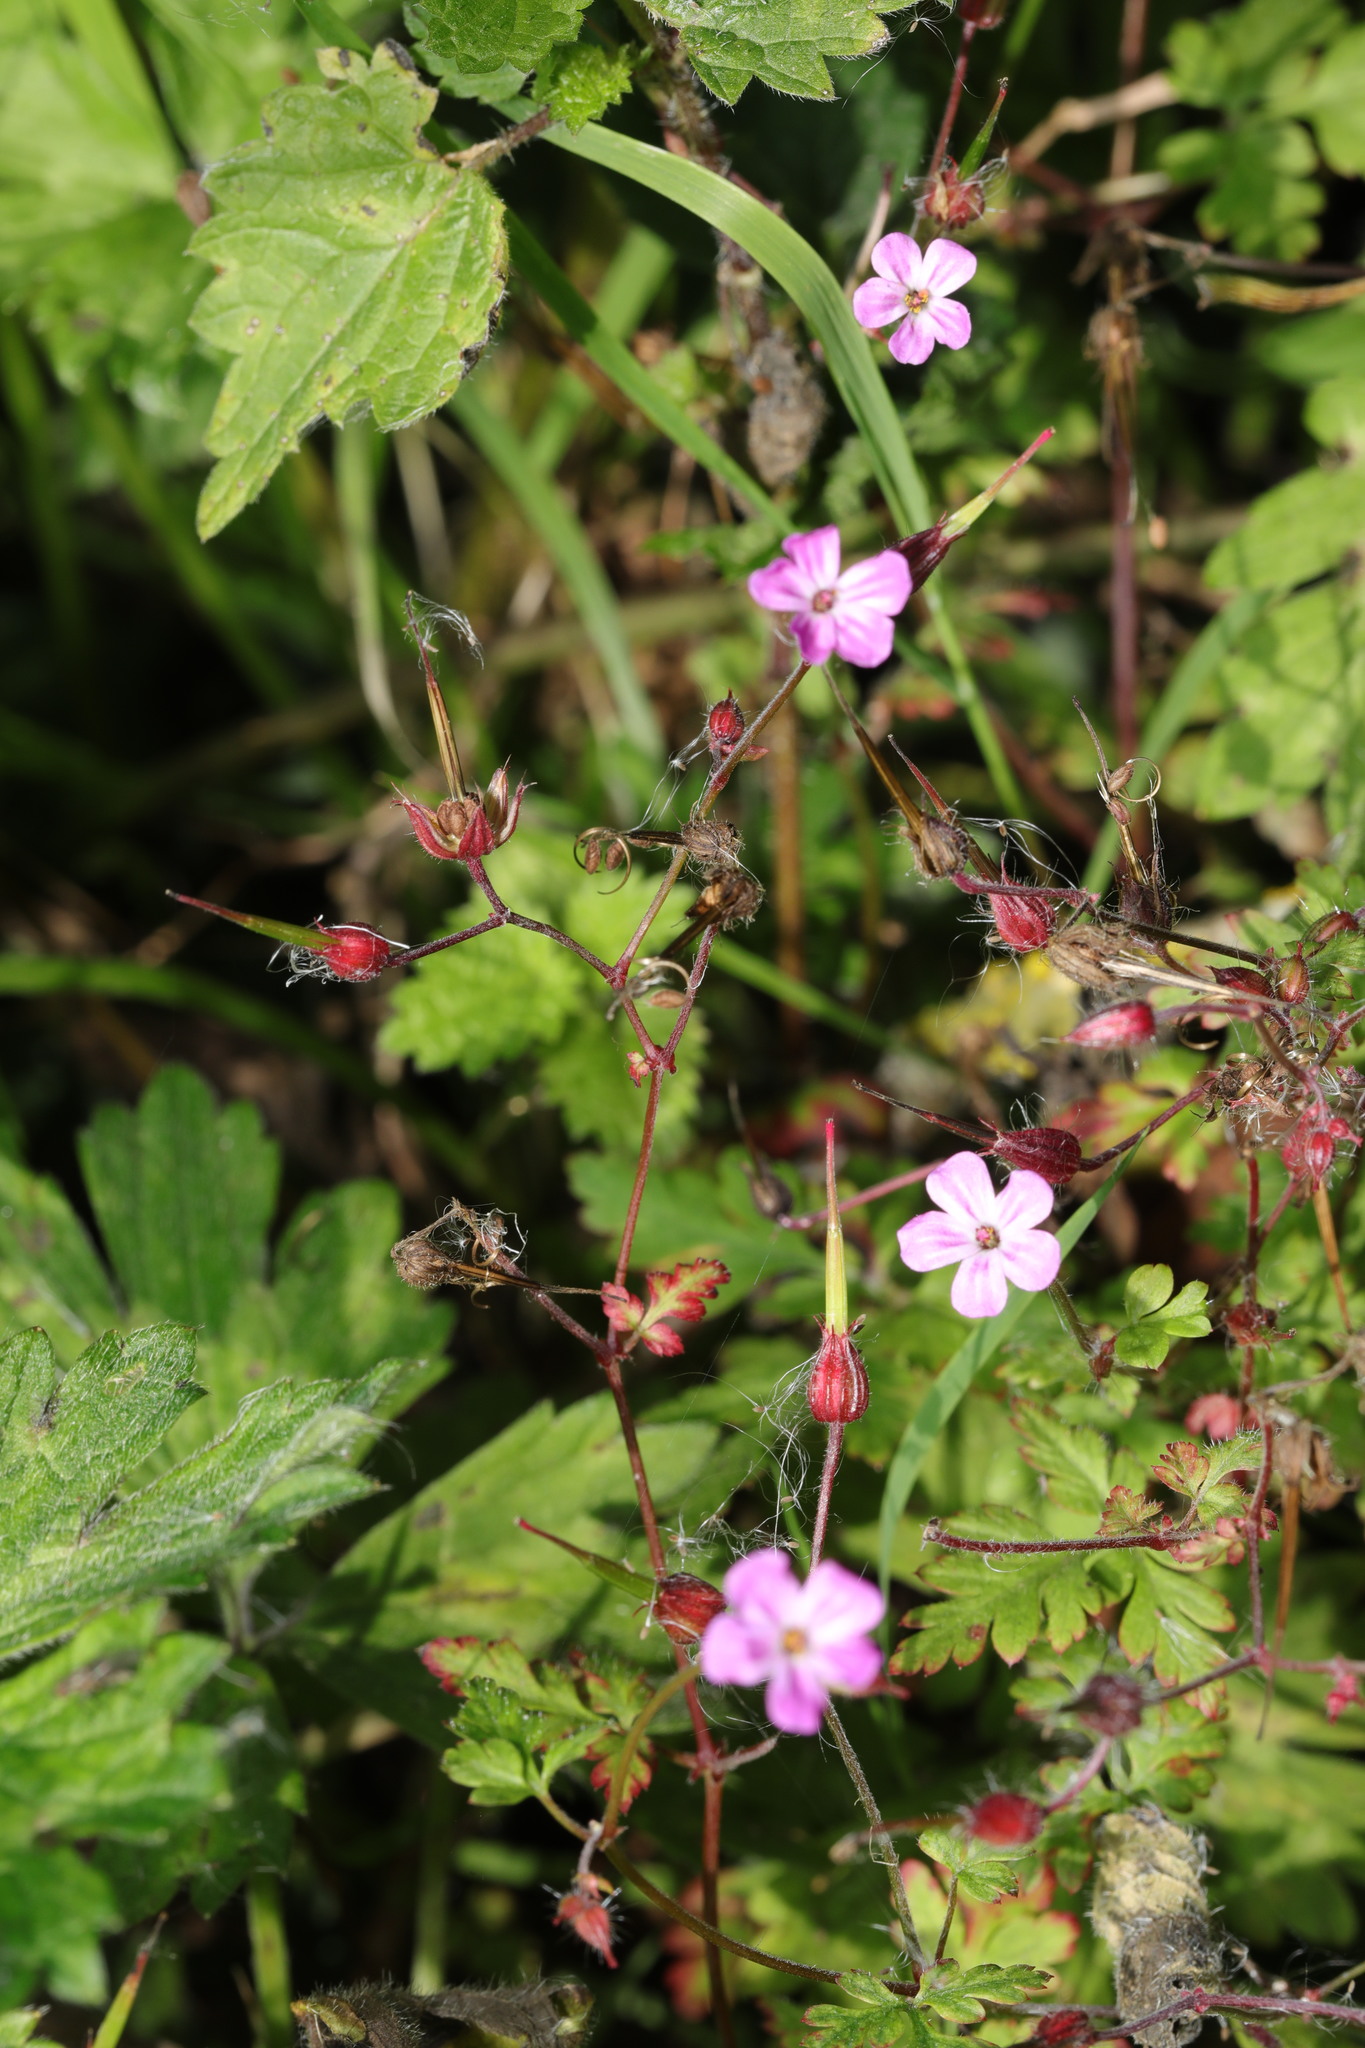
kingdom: Plantae
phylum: Tracheophyta
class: Magnoliopsida
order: Geraniales
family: Geraniaceae
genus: Geranium
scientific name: Geranium robertianum
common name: Herb-robert
